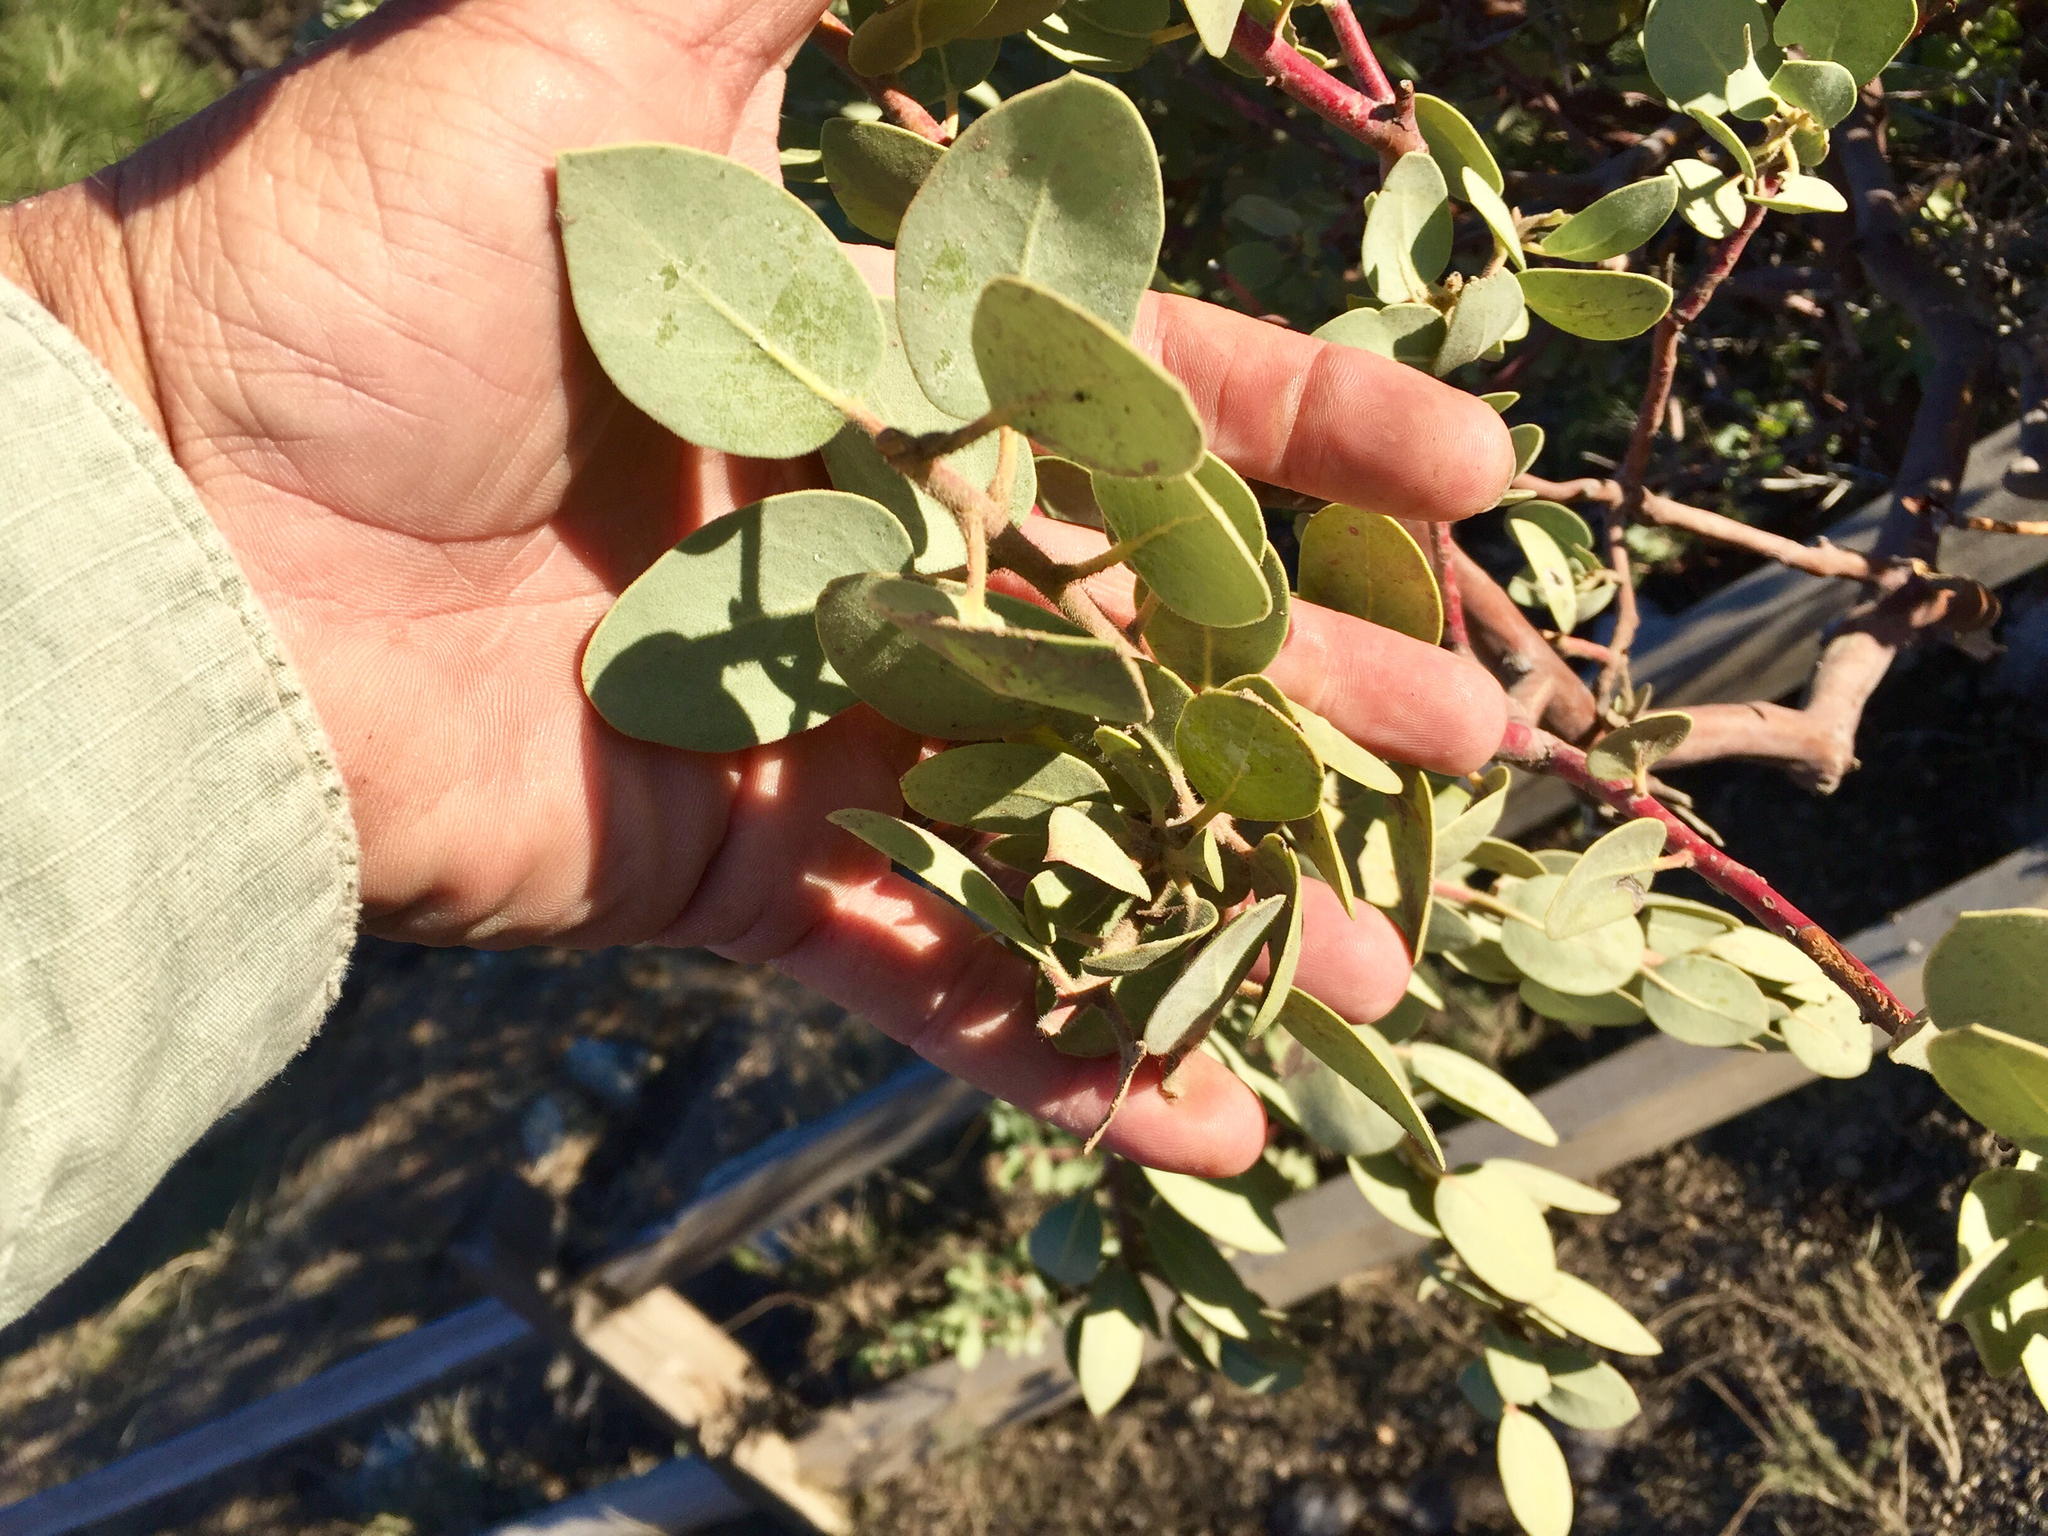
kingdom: Plantae
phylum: Tracheophyta
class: Magnoliopsida
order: Ericales
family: Ericaceae
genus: Arctostaphylos
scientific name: Arctostaphylos pringlei
